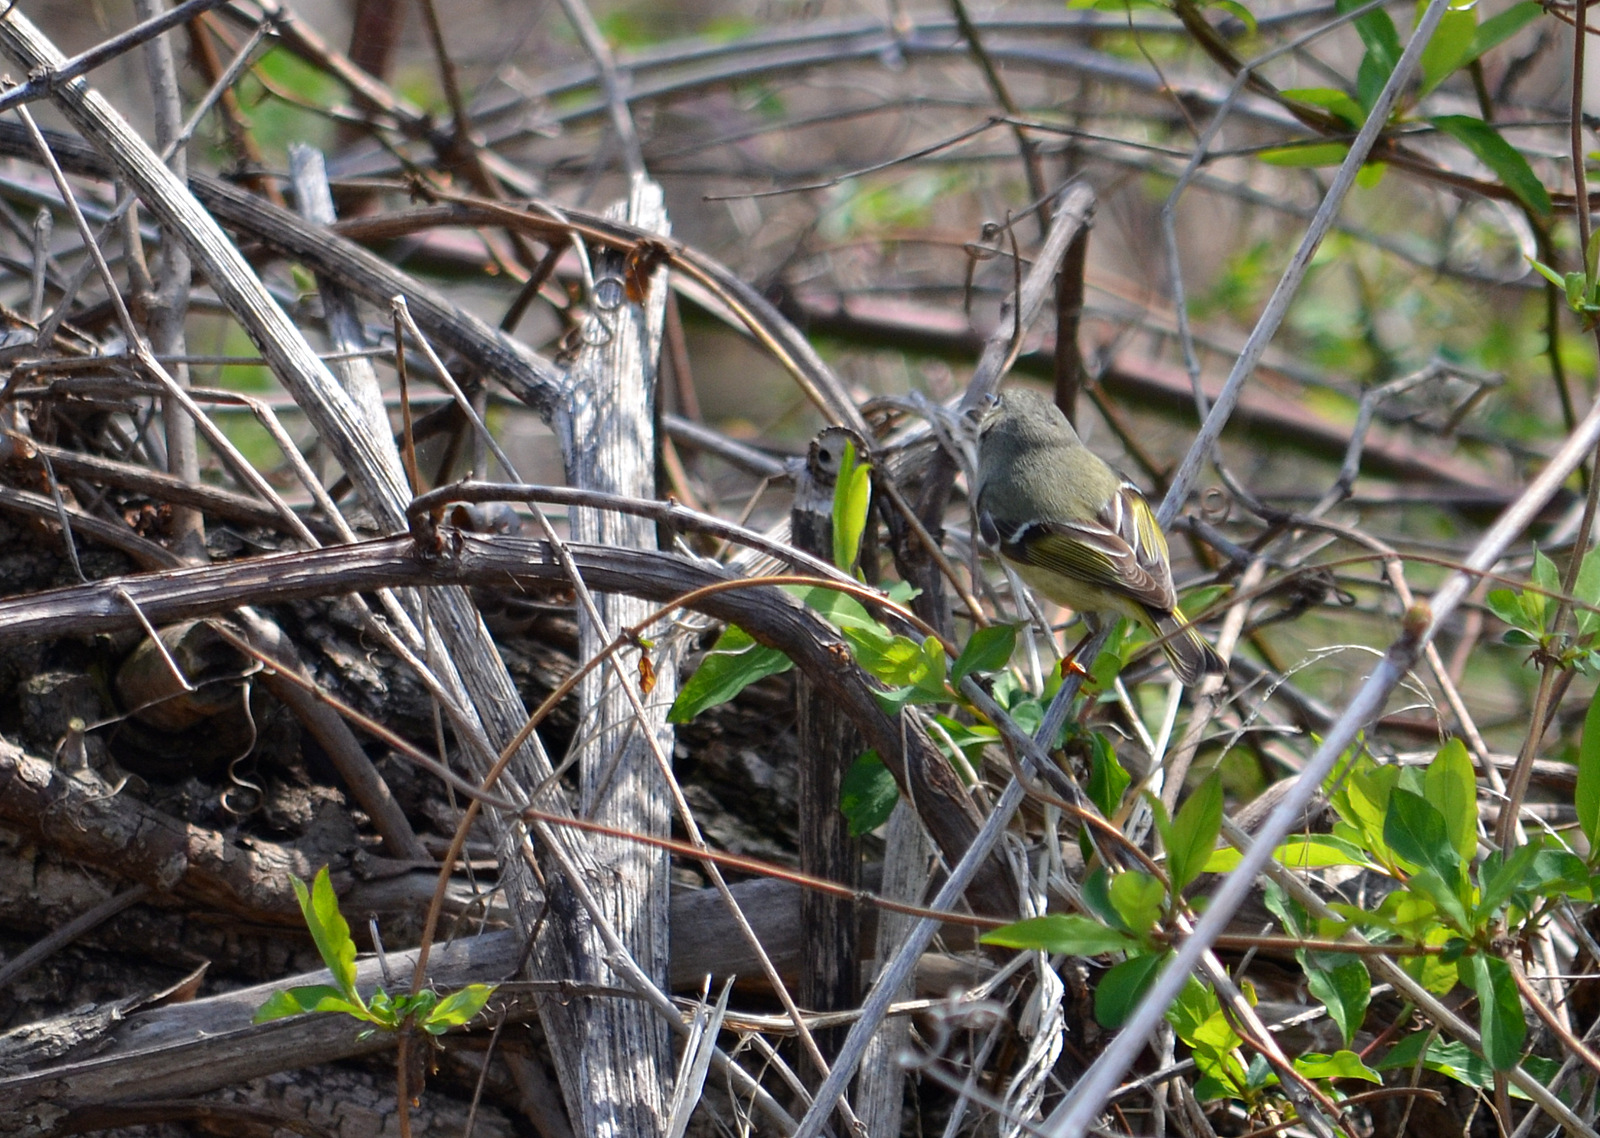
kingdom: Animalia
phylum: Chordata
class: Aves
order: Passeriformes
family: Regulidae
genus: Regulus
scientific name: Regulus calendula
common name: Ruby-crowned kinglet
